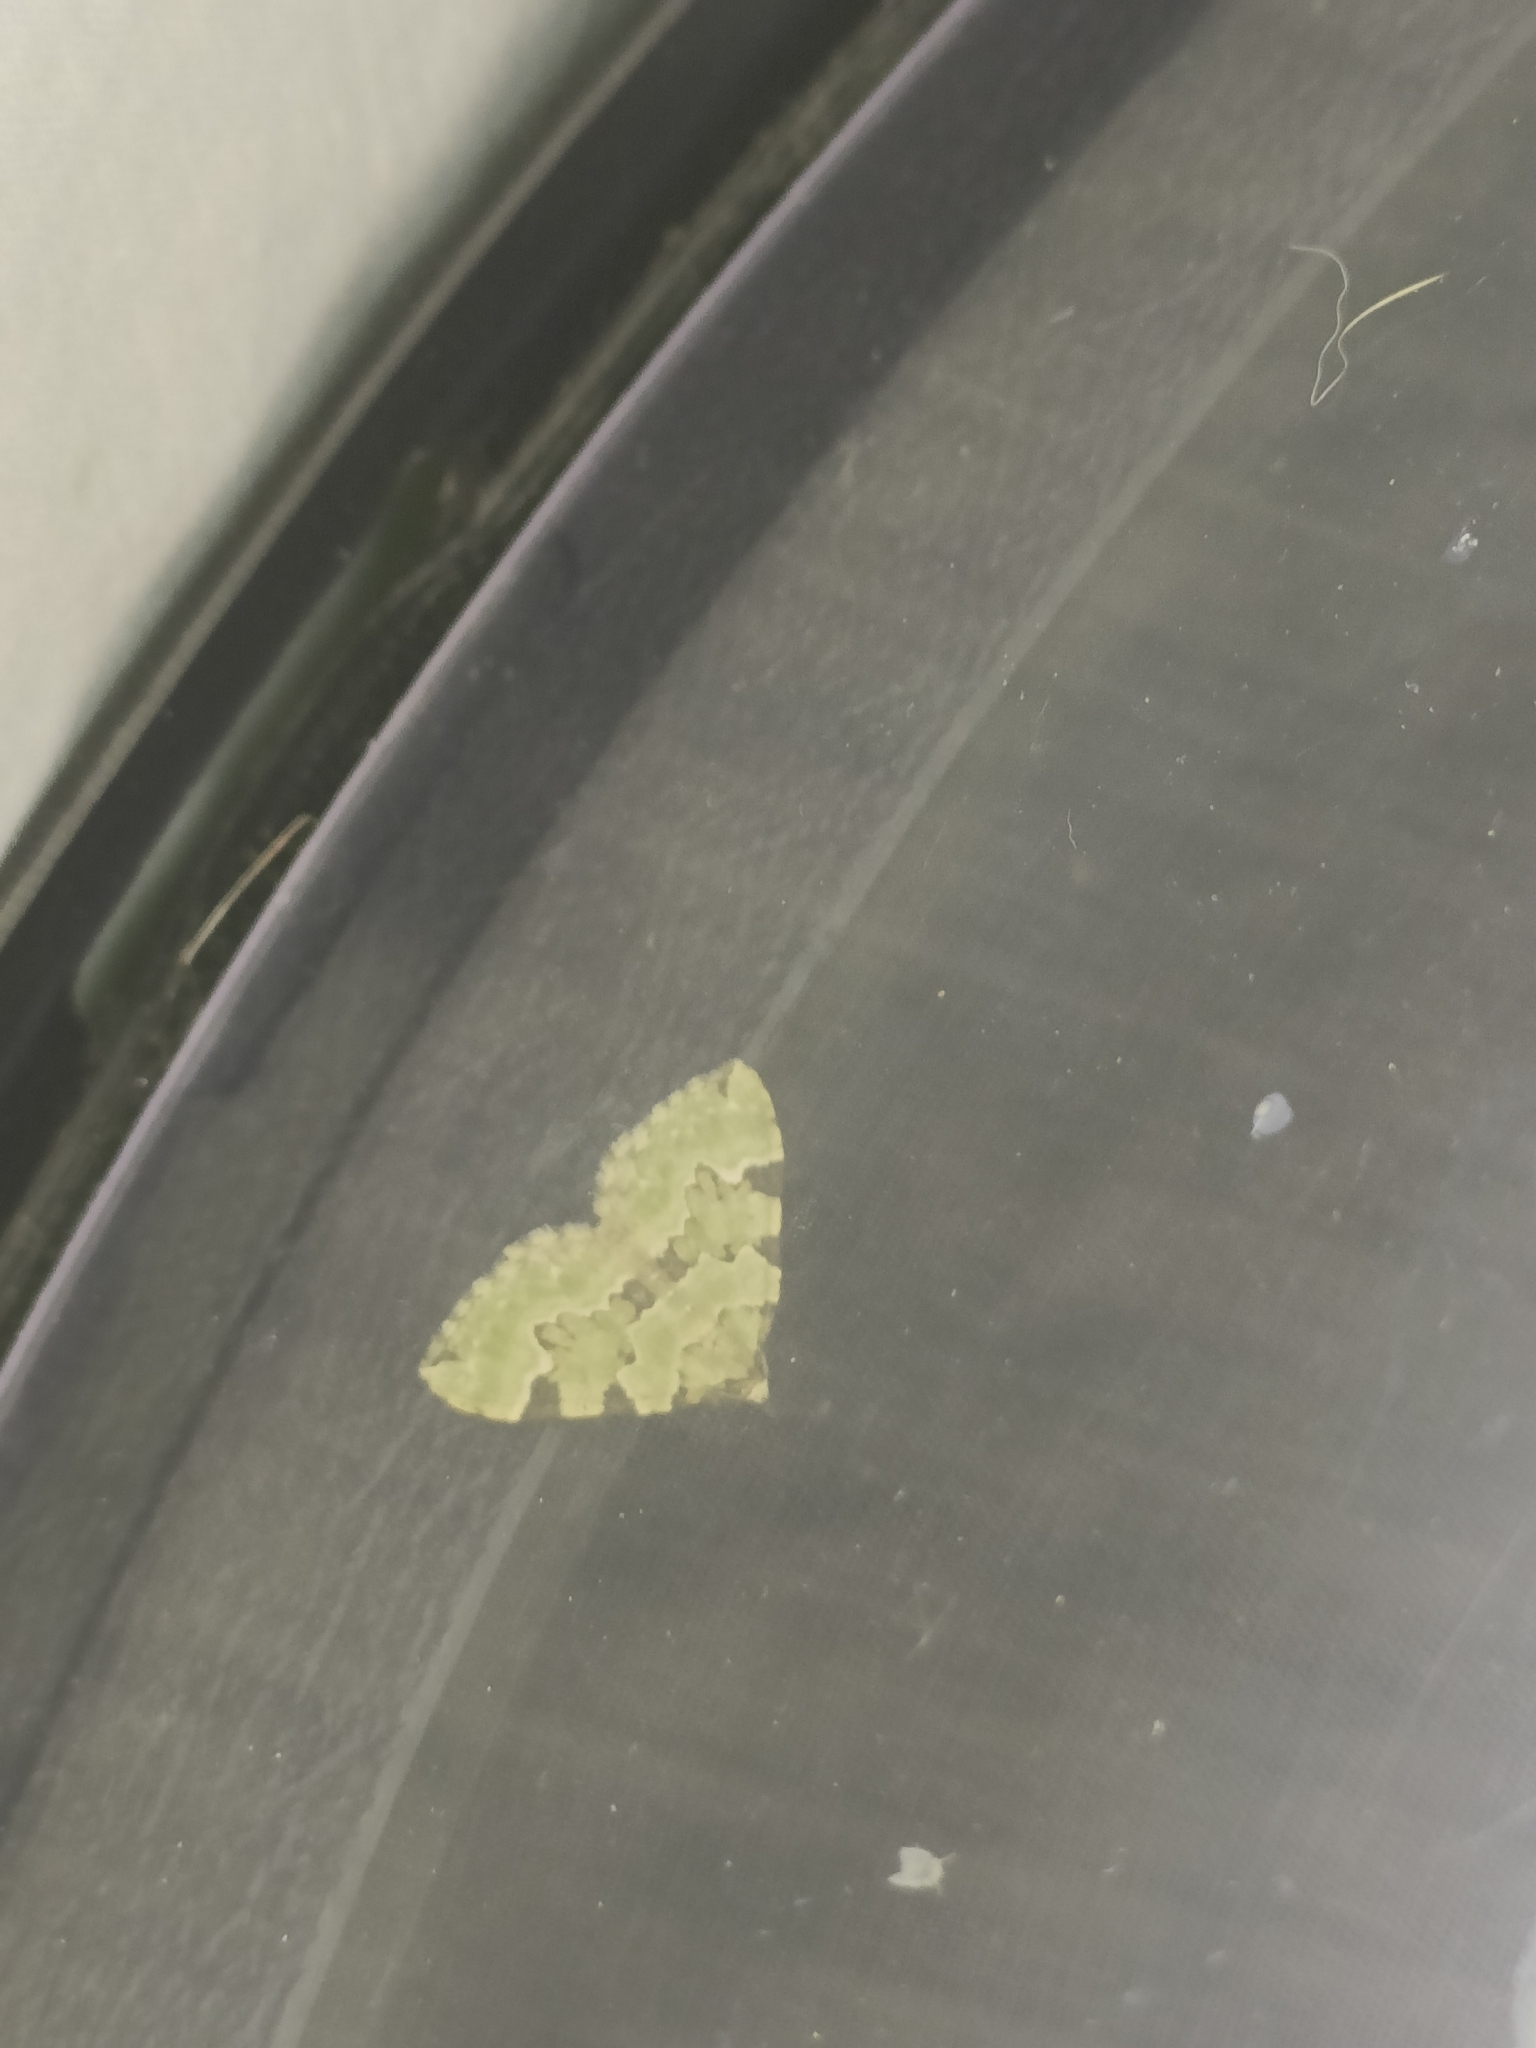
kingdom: Animalia
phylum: Arthropoda
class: Insecta
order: Lepidoptera
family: Geometridae
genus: Colostygia
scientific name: Colostygia pectinataria
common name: Green carpet
